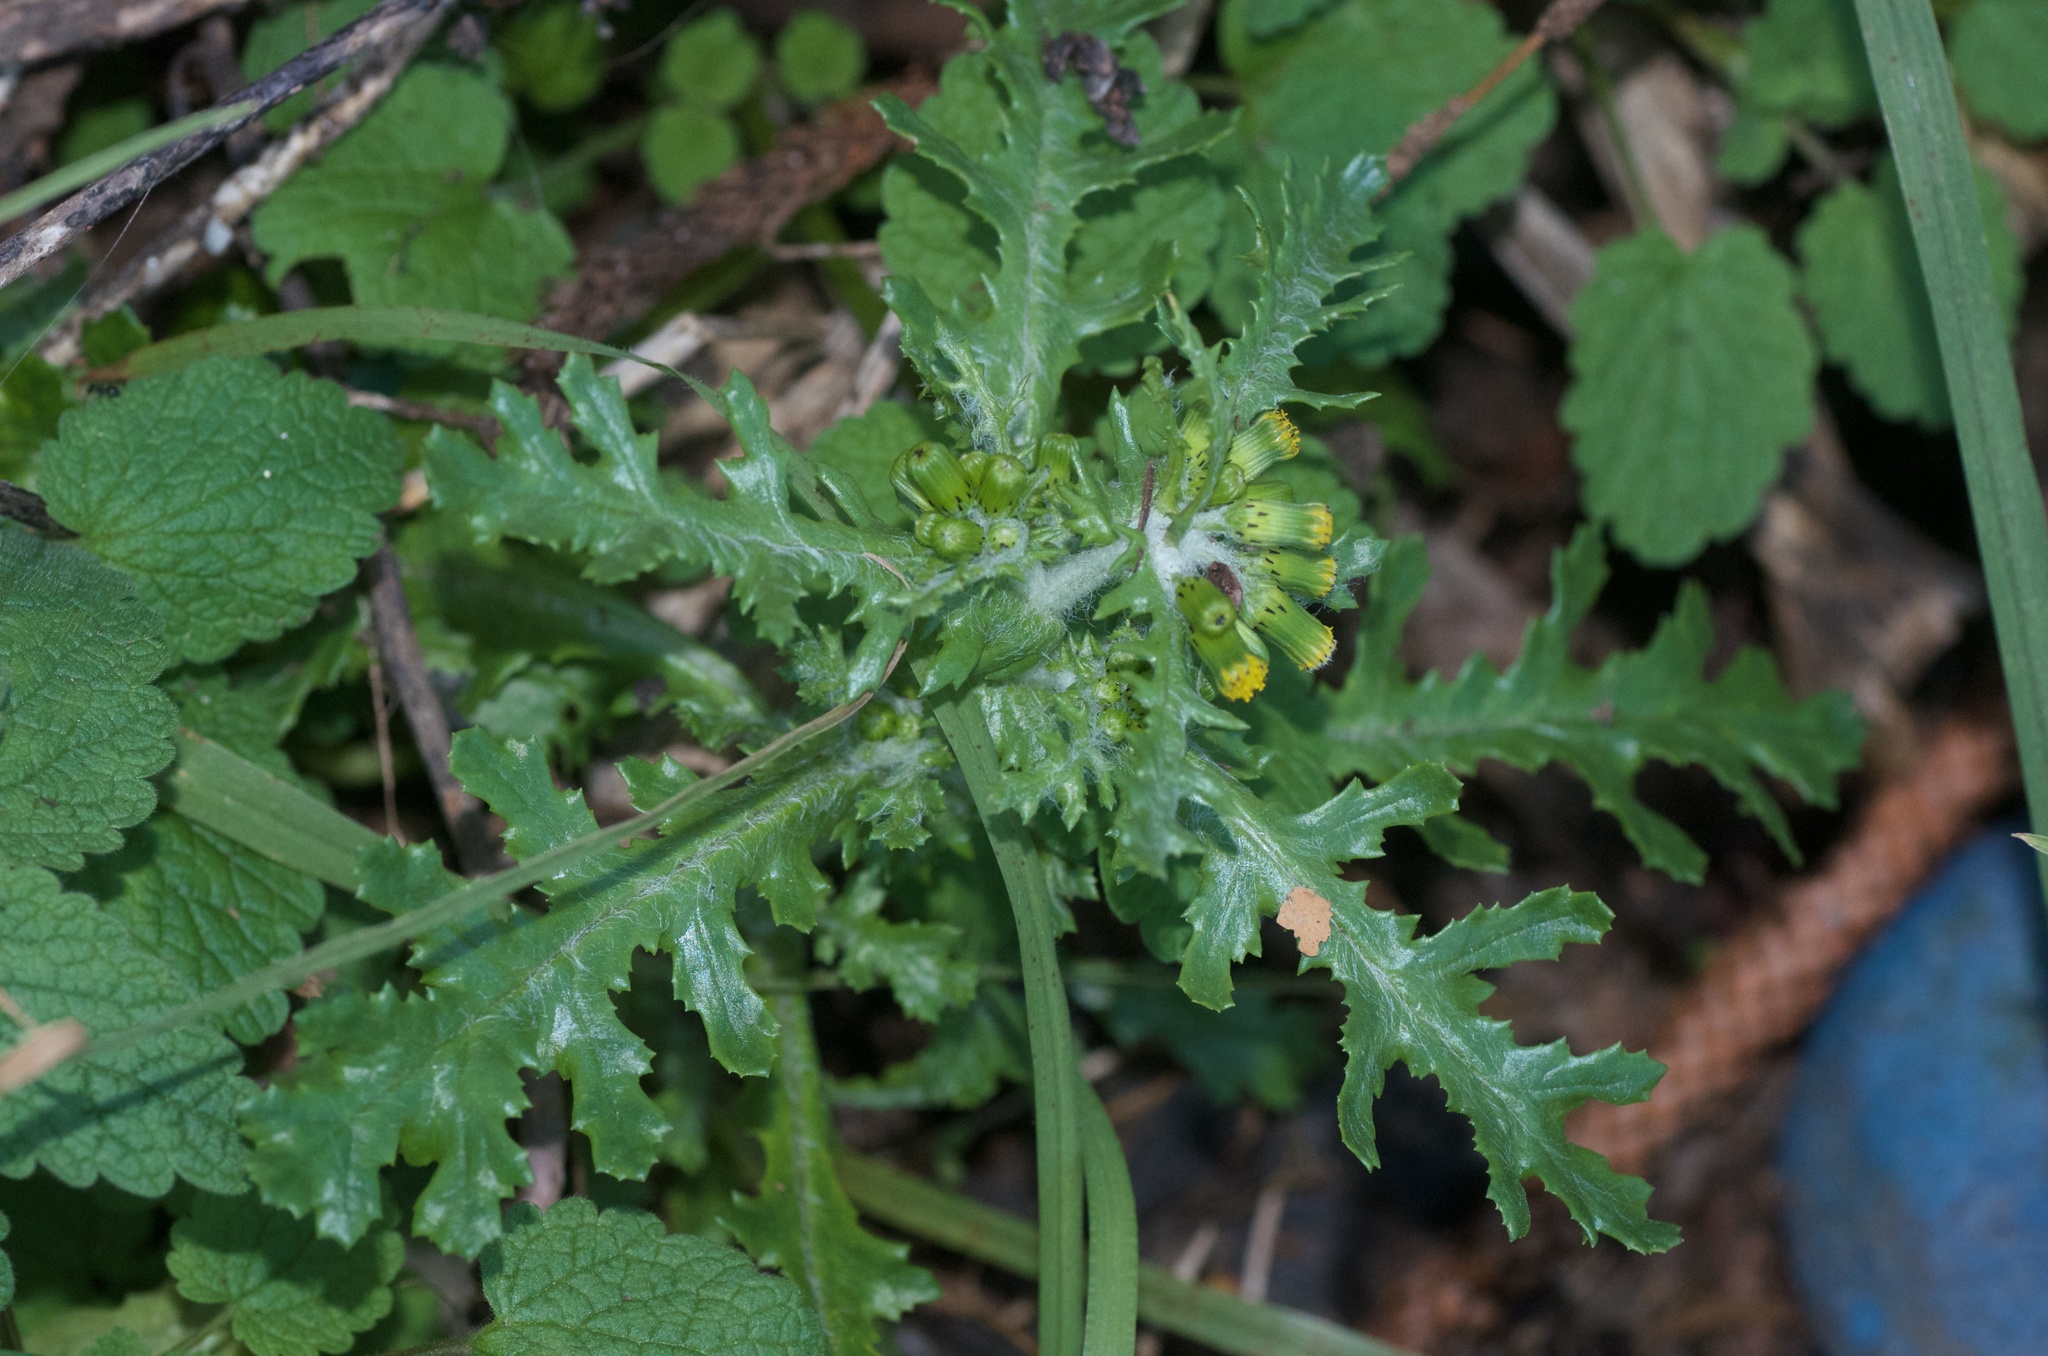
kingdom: Plantae
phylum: Tracheophyta
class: Magnoliopsida
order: Asterales
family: Asteraceae
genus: Senecio
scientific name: Senecio vulgaris
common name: Old-man-in-the-spring
